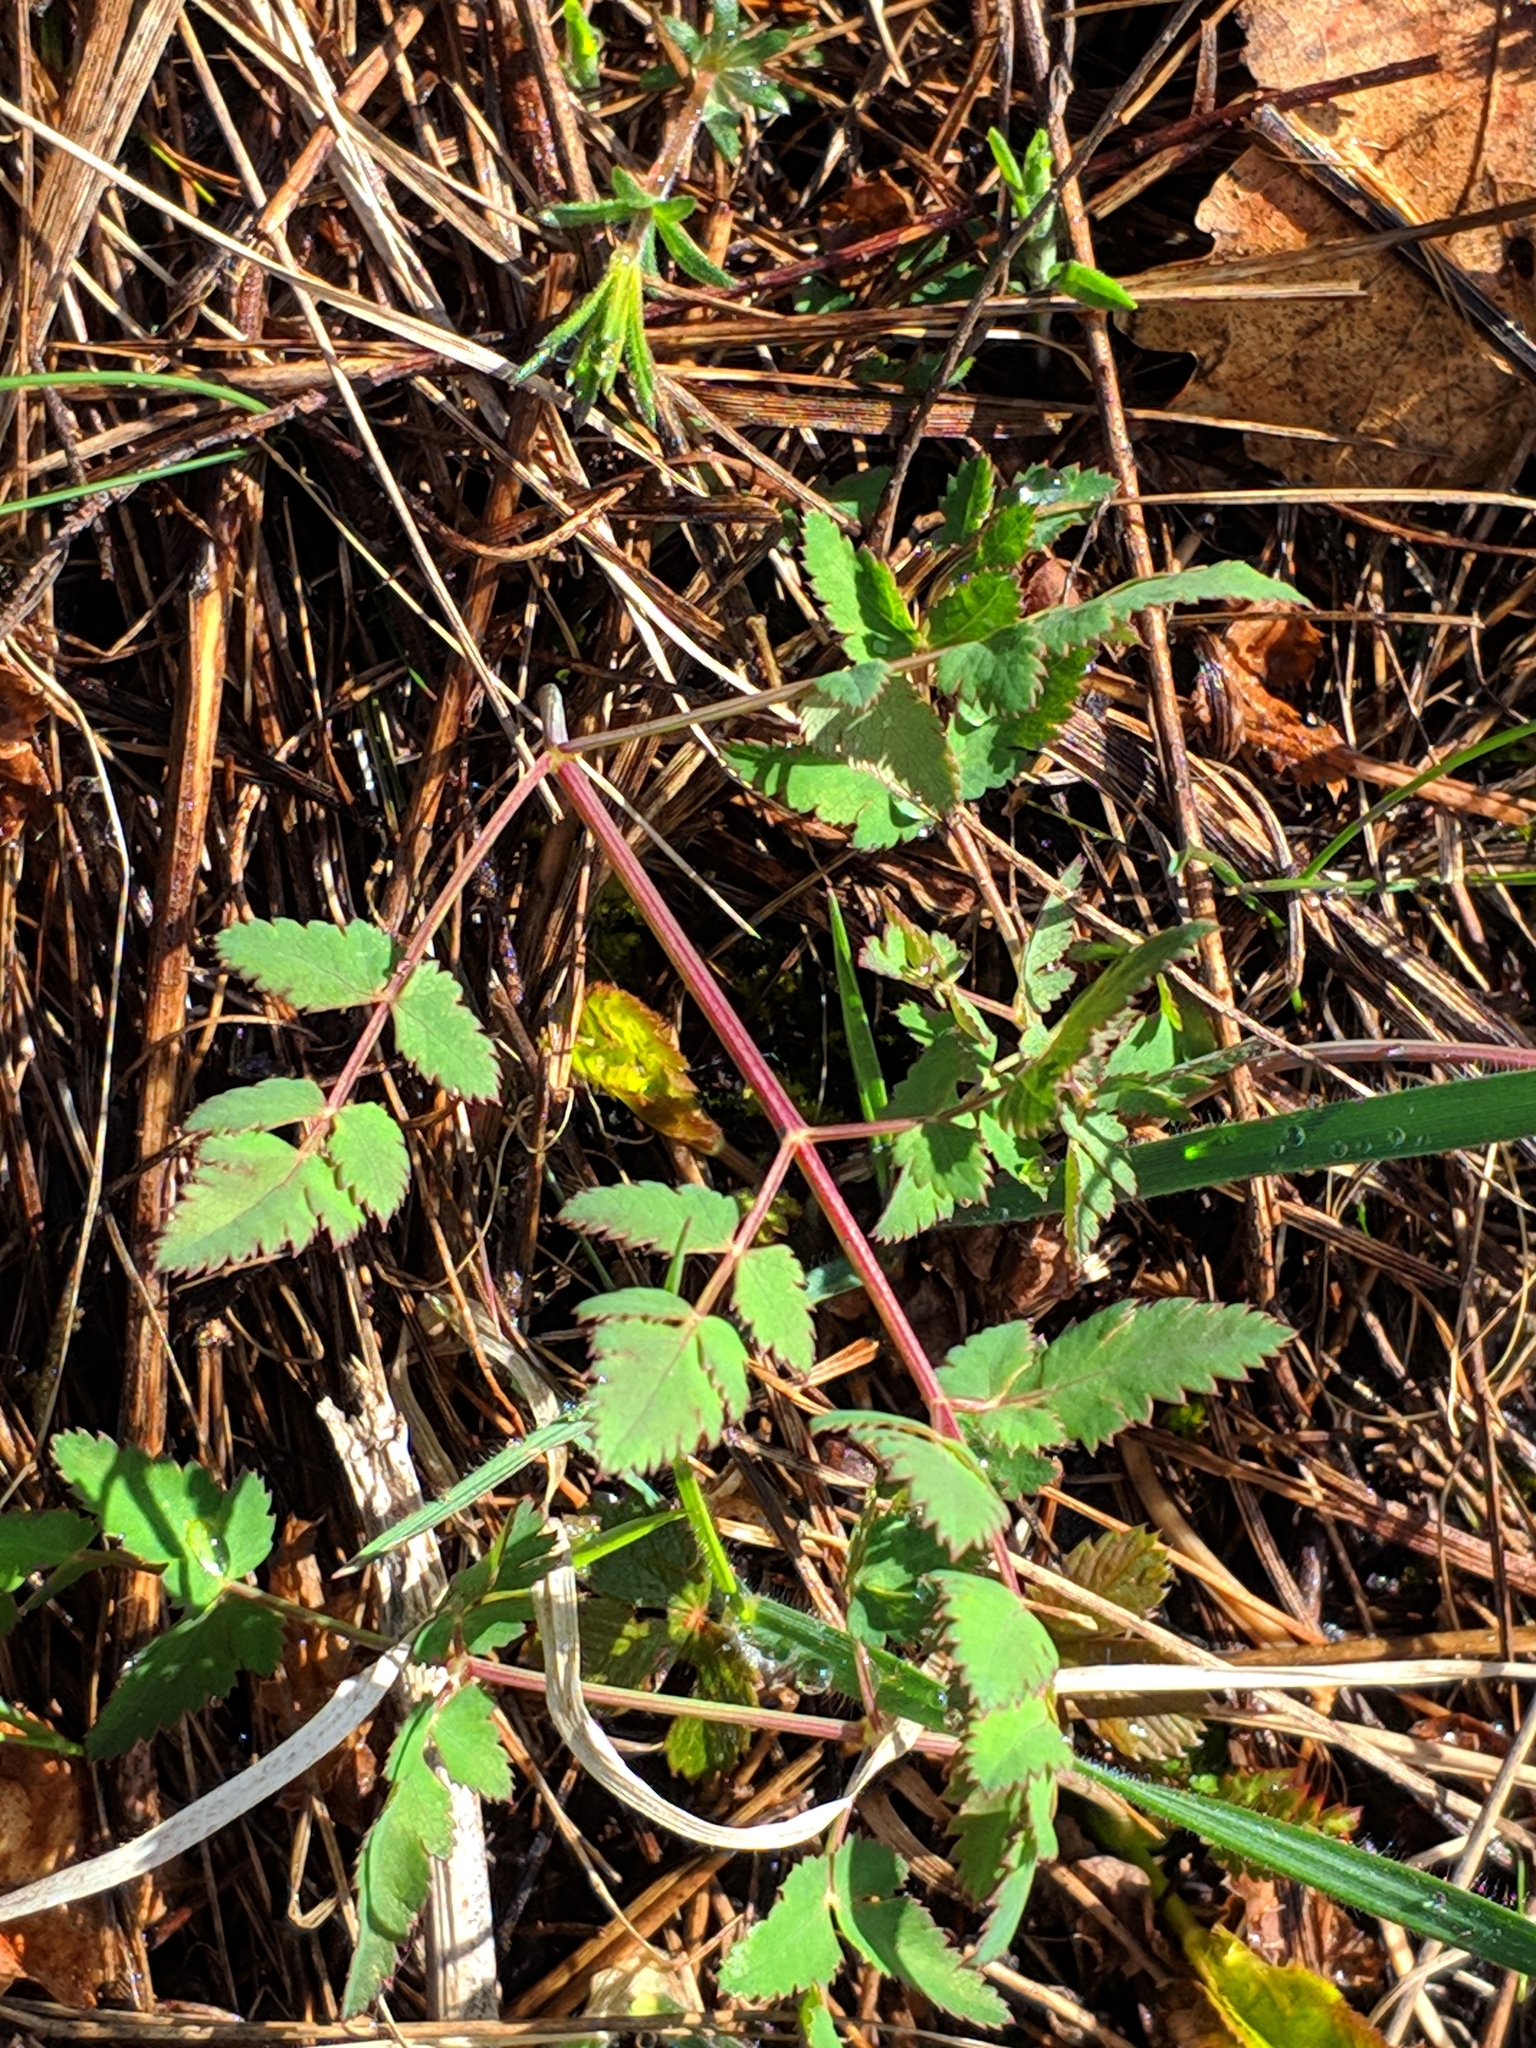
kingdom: Plantae
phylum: Tracheophyta
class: Magnoliopsida
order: Apiales
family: Apiaceae
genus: Cervaria
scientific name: Cervaria rivini
